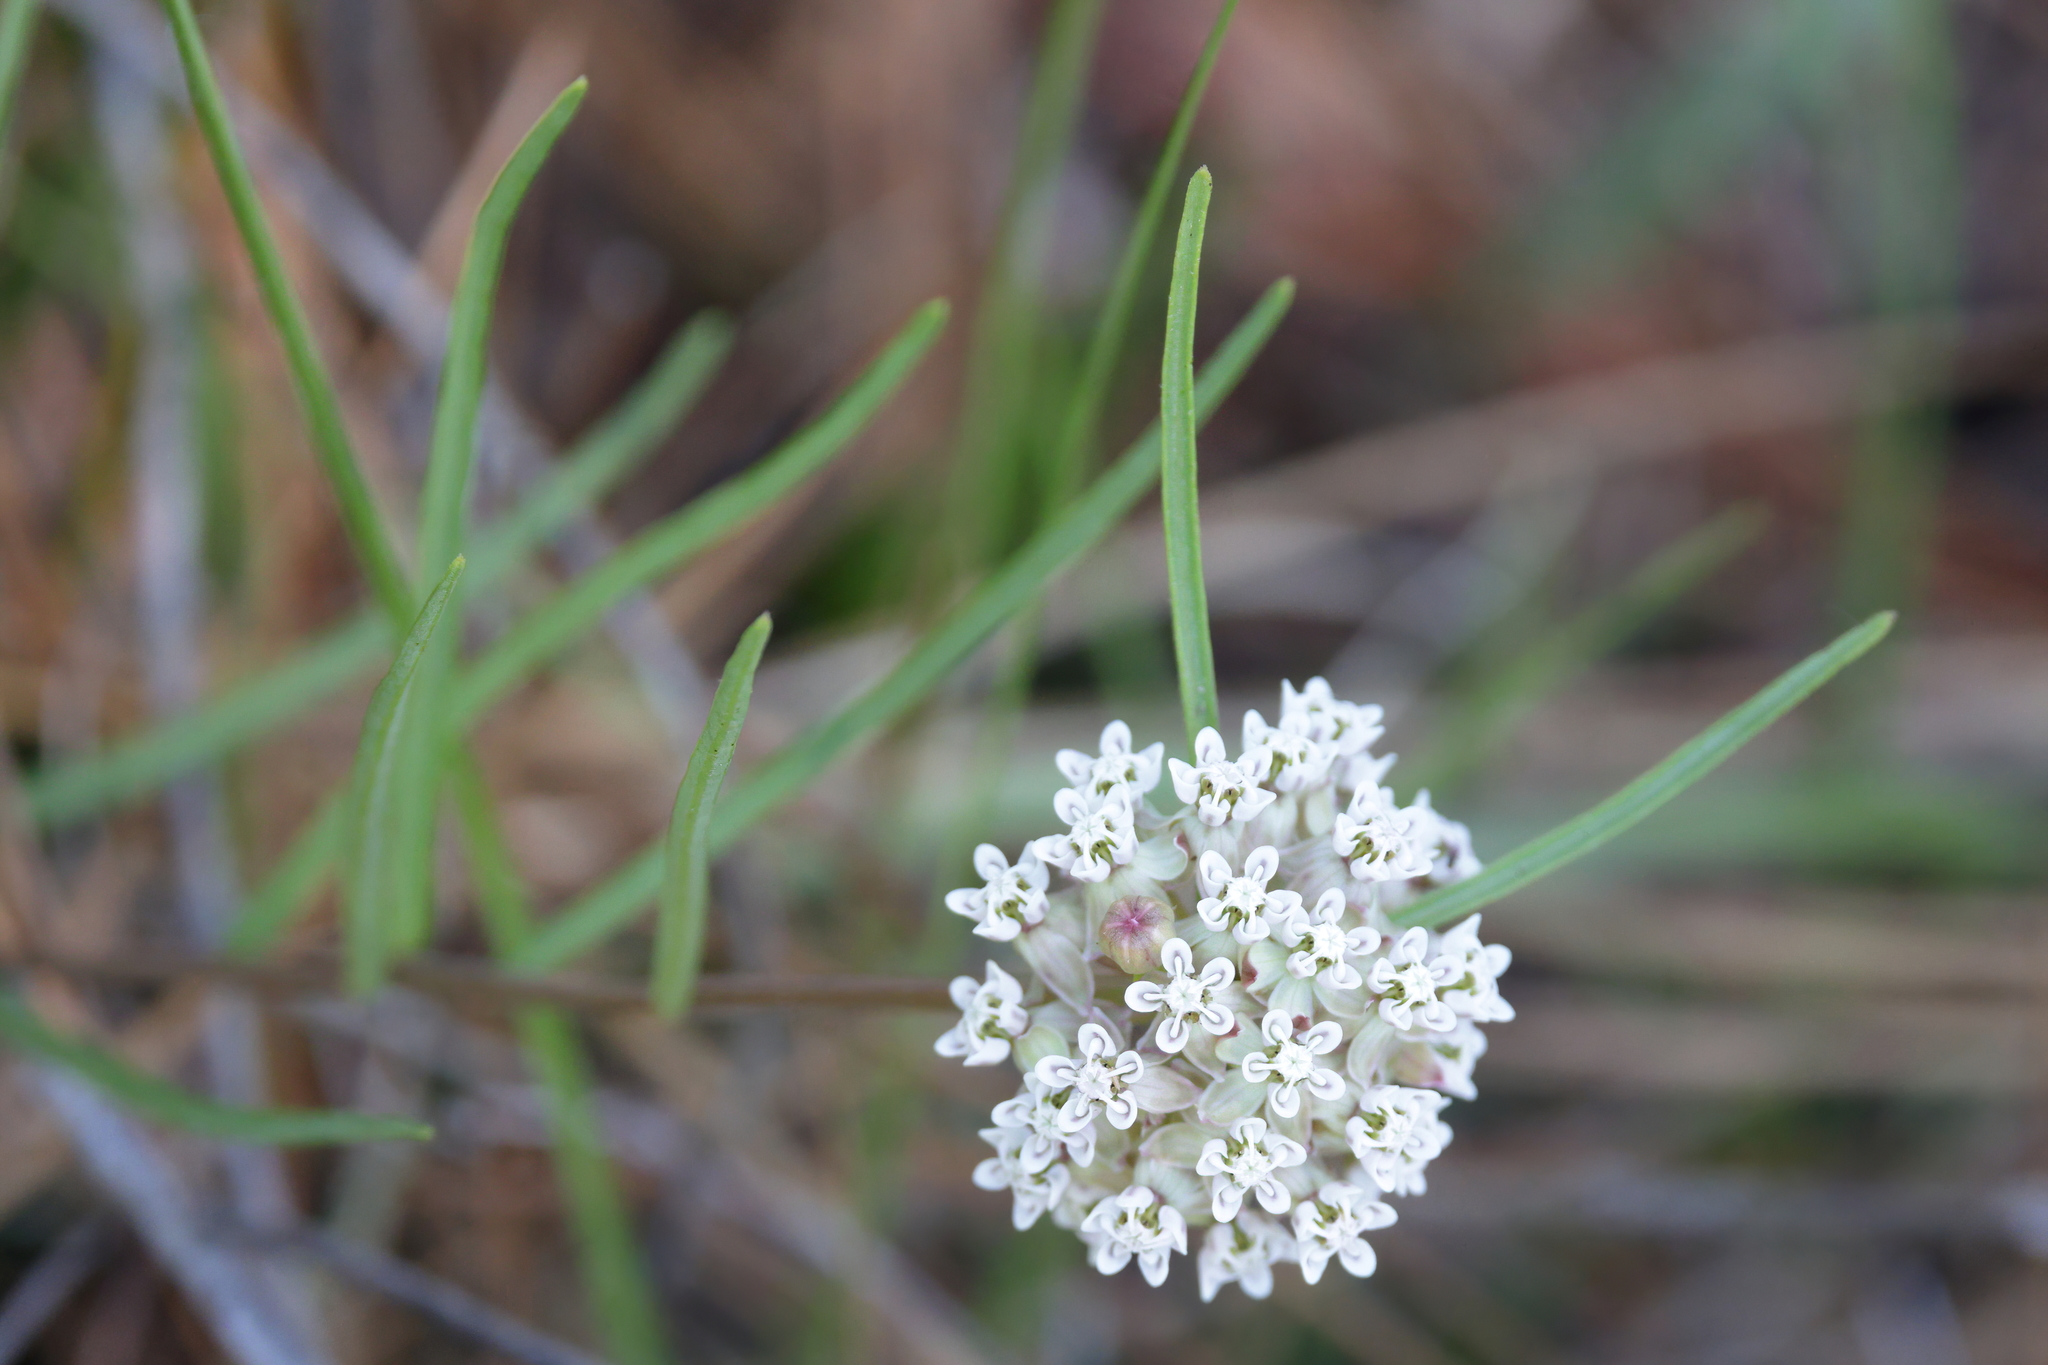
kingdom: Plantae
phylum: Tracheophyta
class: Magnoliopsida
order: Gentianales
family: Apocynaceae
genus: Asclepias
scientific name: Asclepias michauxii
